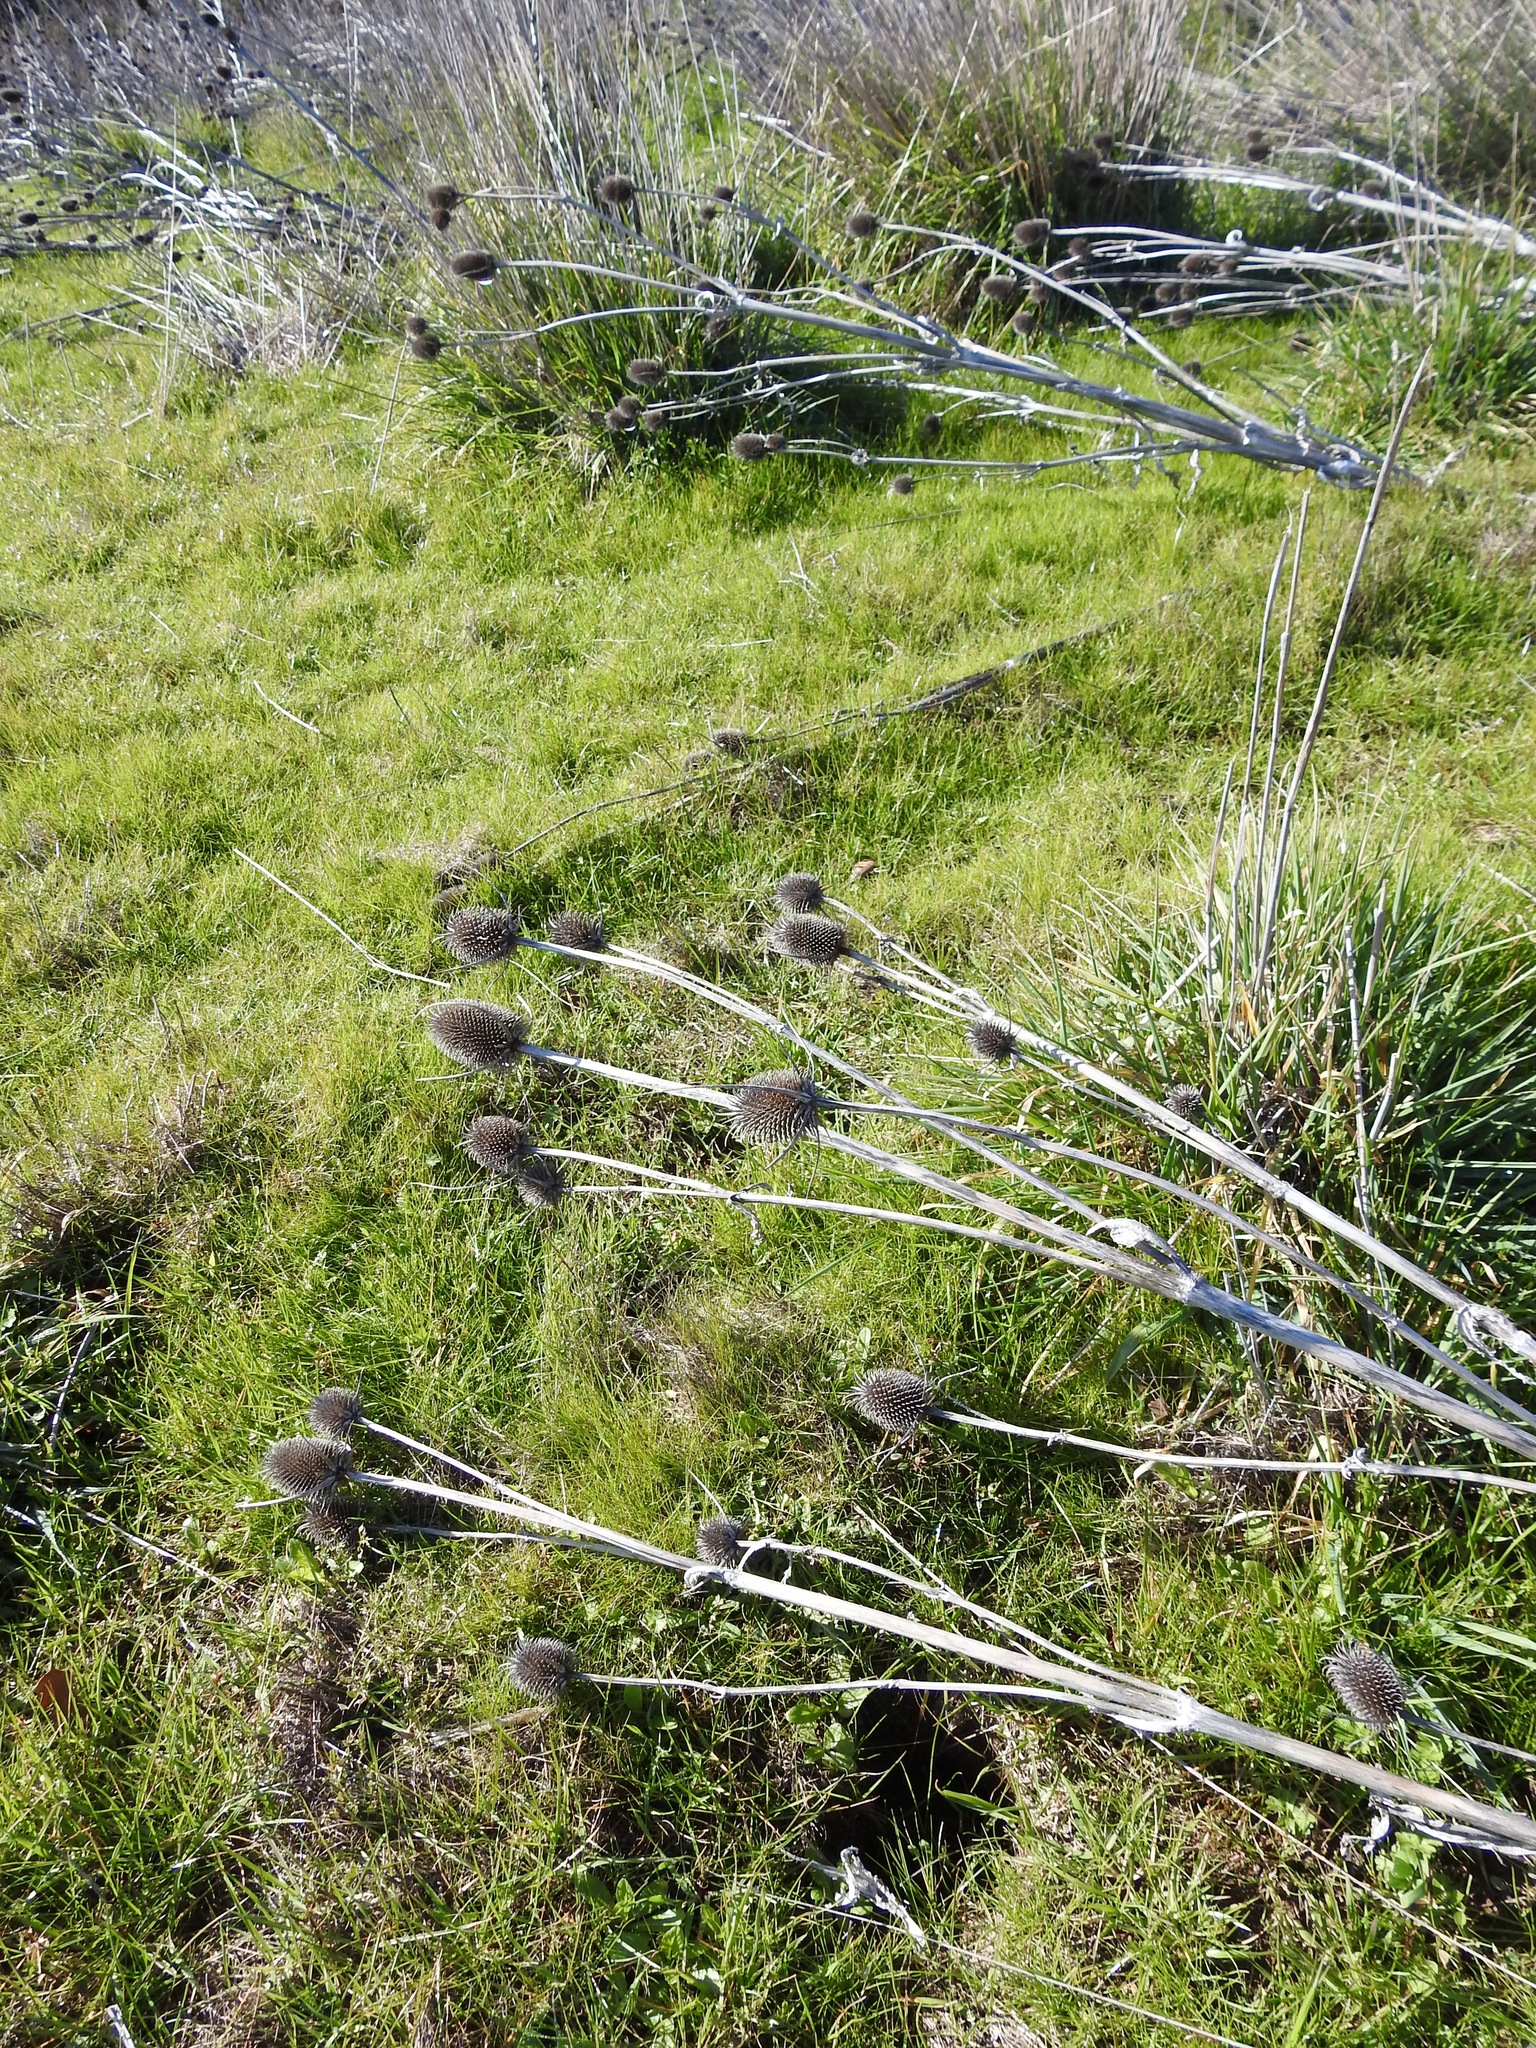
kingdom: Plantae
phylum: Tracheophyta
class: Magnoliopsida
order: Dipsacales
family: Caprifoliaceae
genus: Dipsacus
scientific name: Dipsacus sativus
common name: Fuller's teasel
